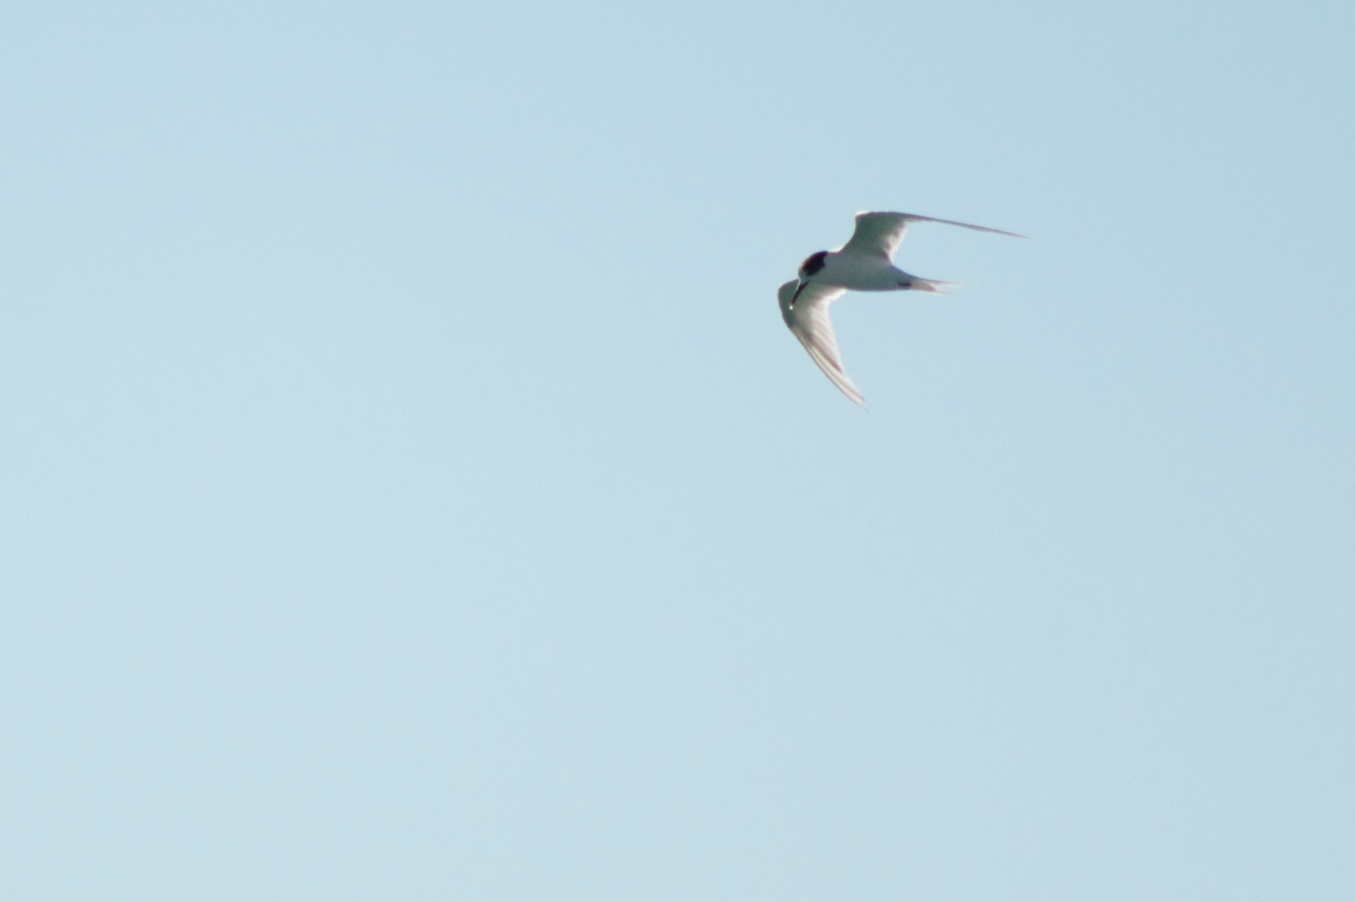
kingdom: Animalia
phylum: Chordata
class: Aves
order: Charadriiformes
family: Laridae
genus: Sterna
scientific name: Sterna striata
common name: White-fronted tern
